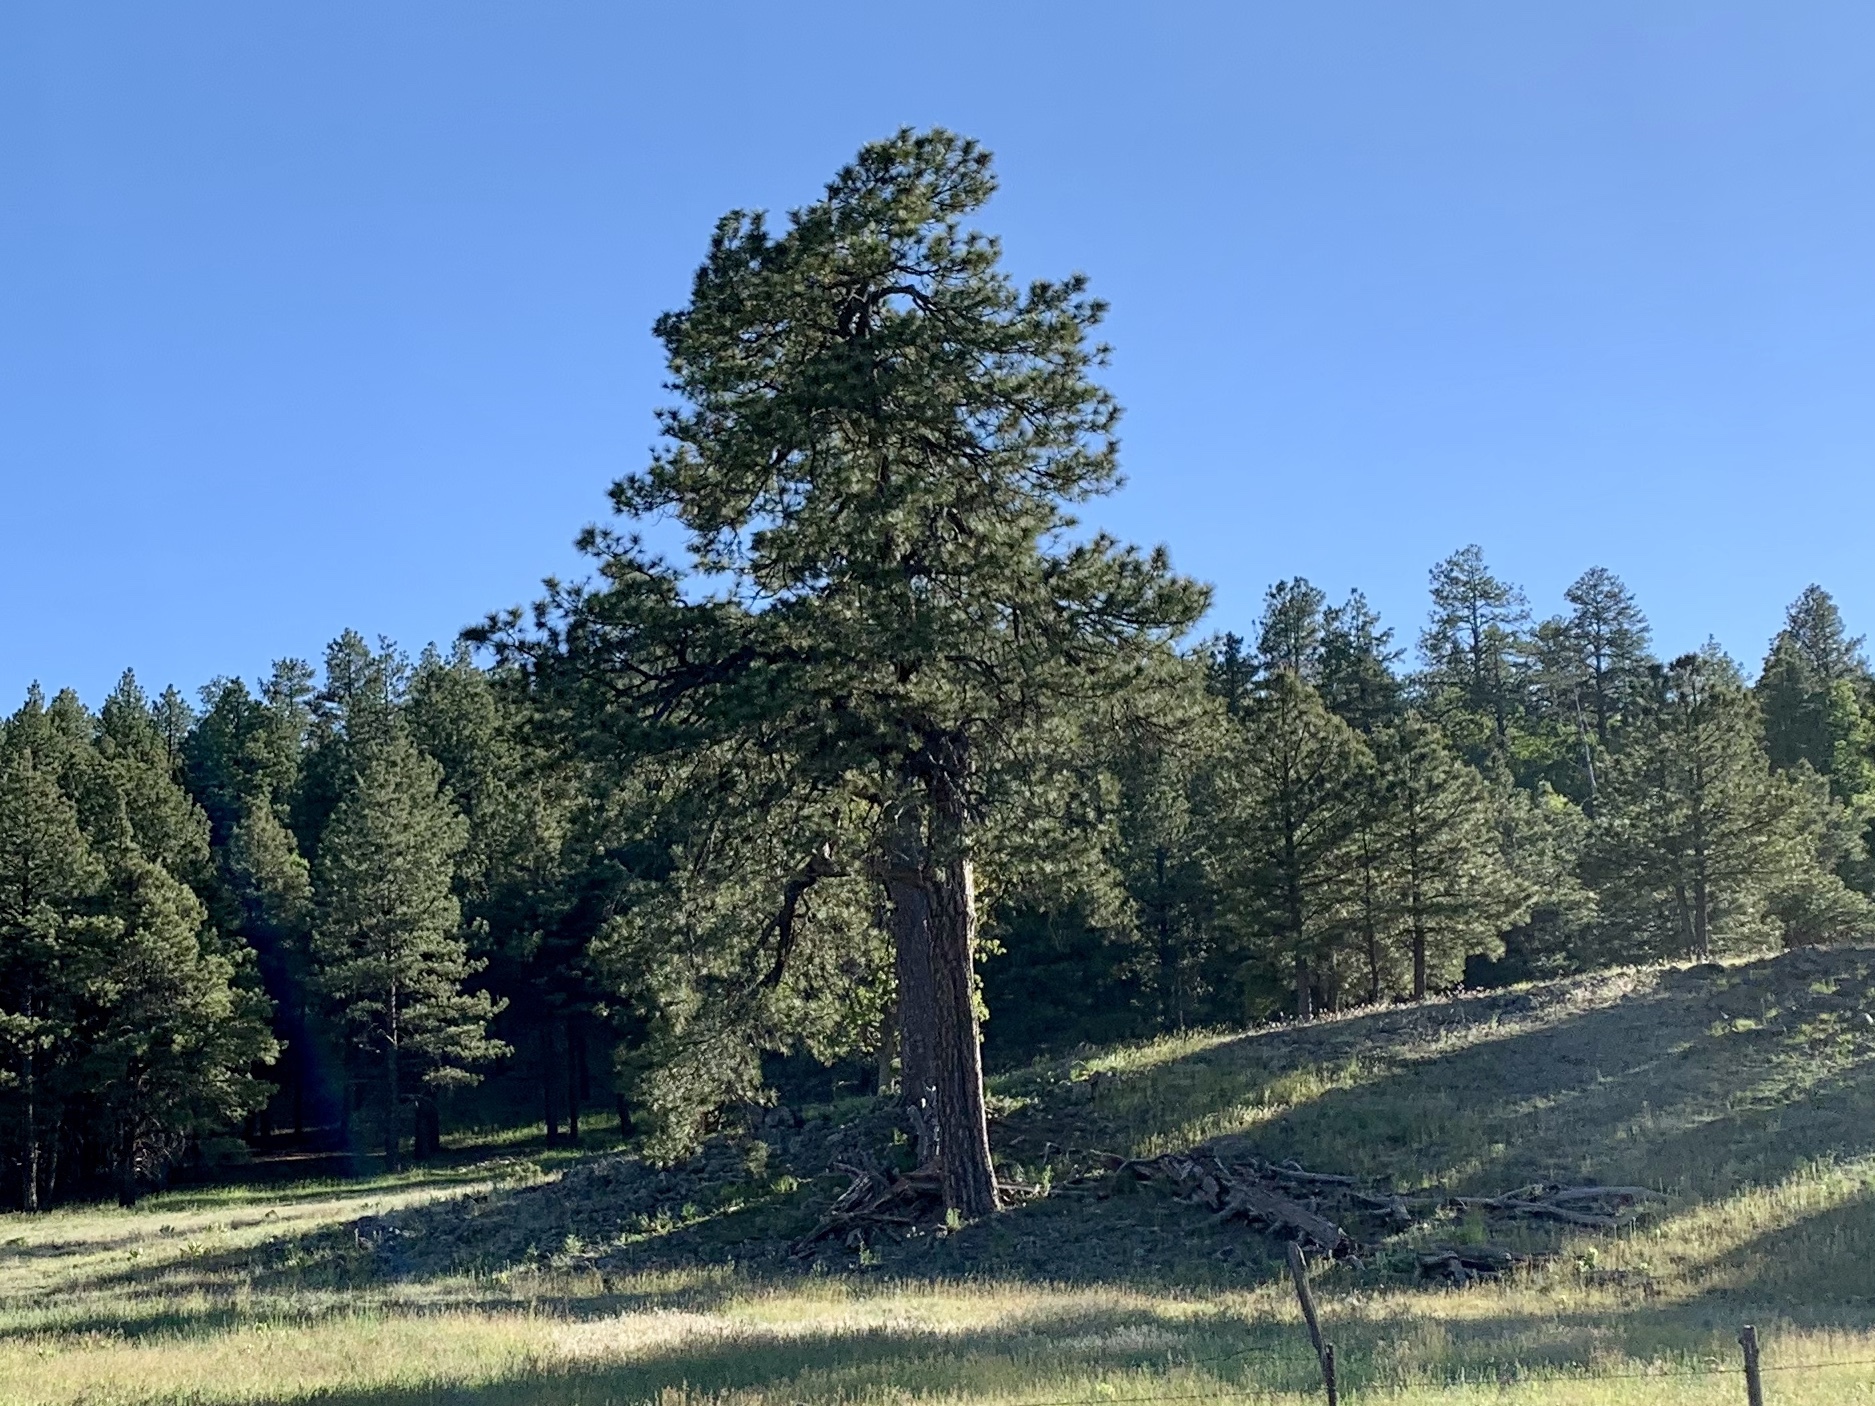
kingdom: Plantae
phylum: Tracheophyta
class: Pinopsida
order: Pinales
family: Pinaceae
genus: Pinus
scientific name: Pinus ponderosa
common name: Western yellow-pine
